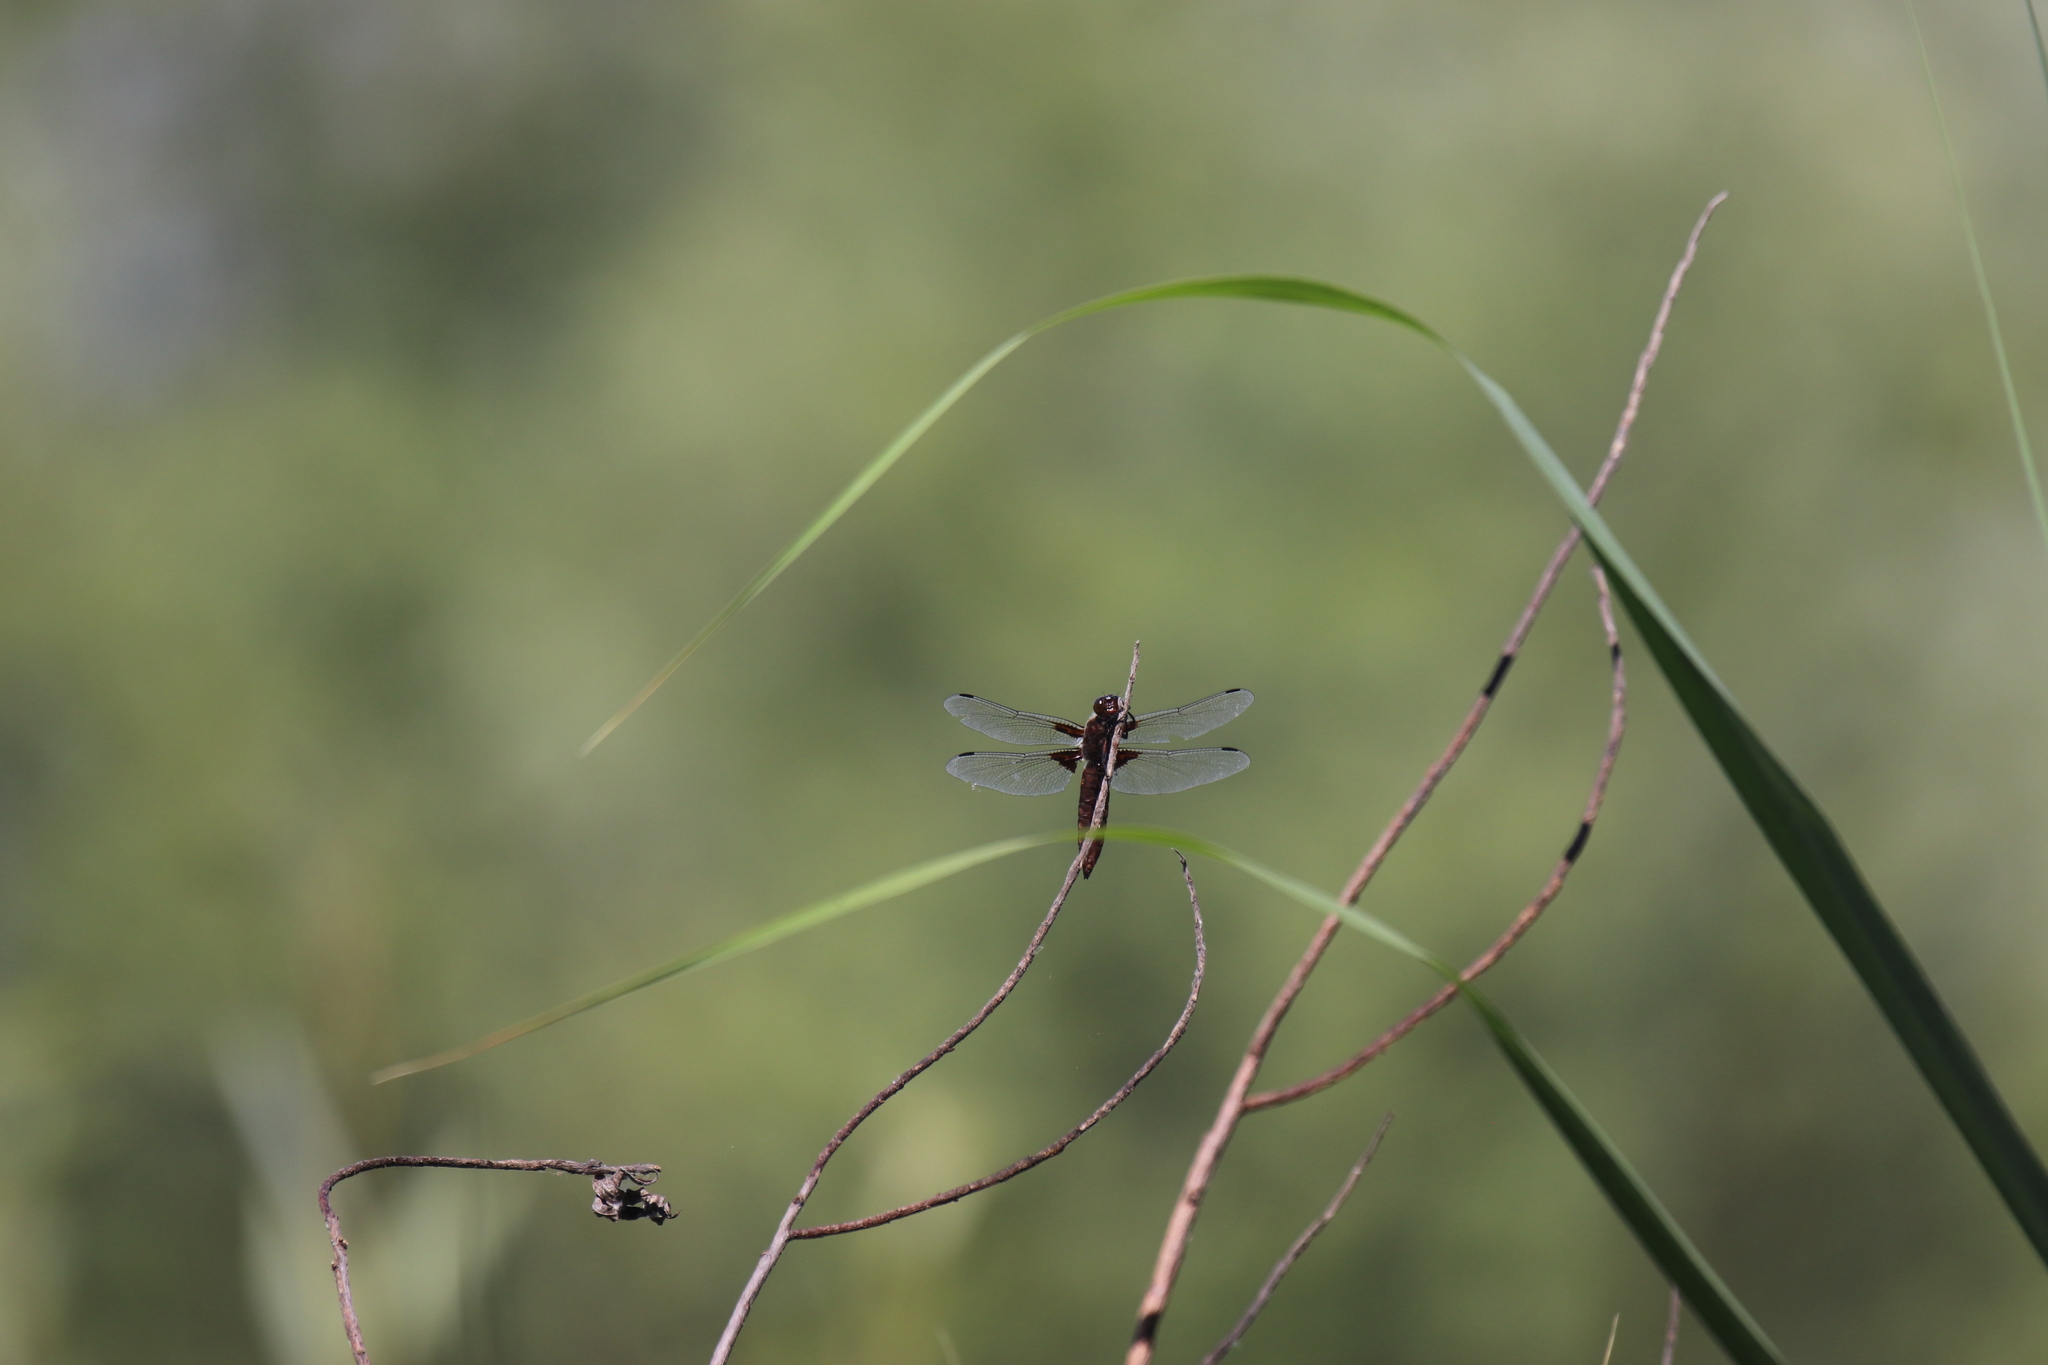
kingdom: Animalia
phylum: Arthropoda
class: Insecta
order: Odonata
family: Libellulidae
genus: Libellula
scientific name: Libellula depressa
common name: Broad-bodied chaser
